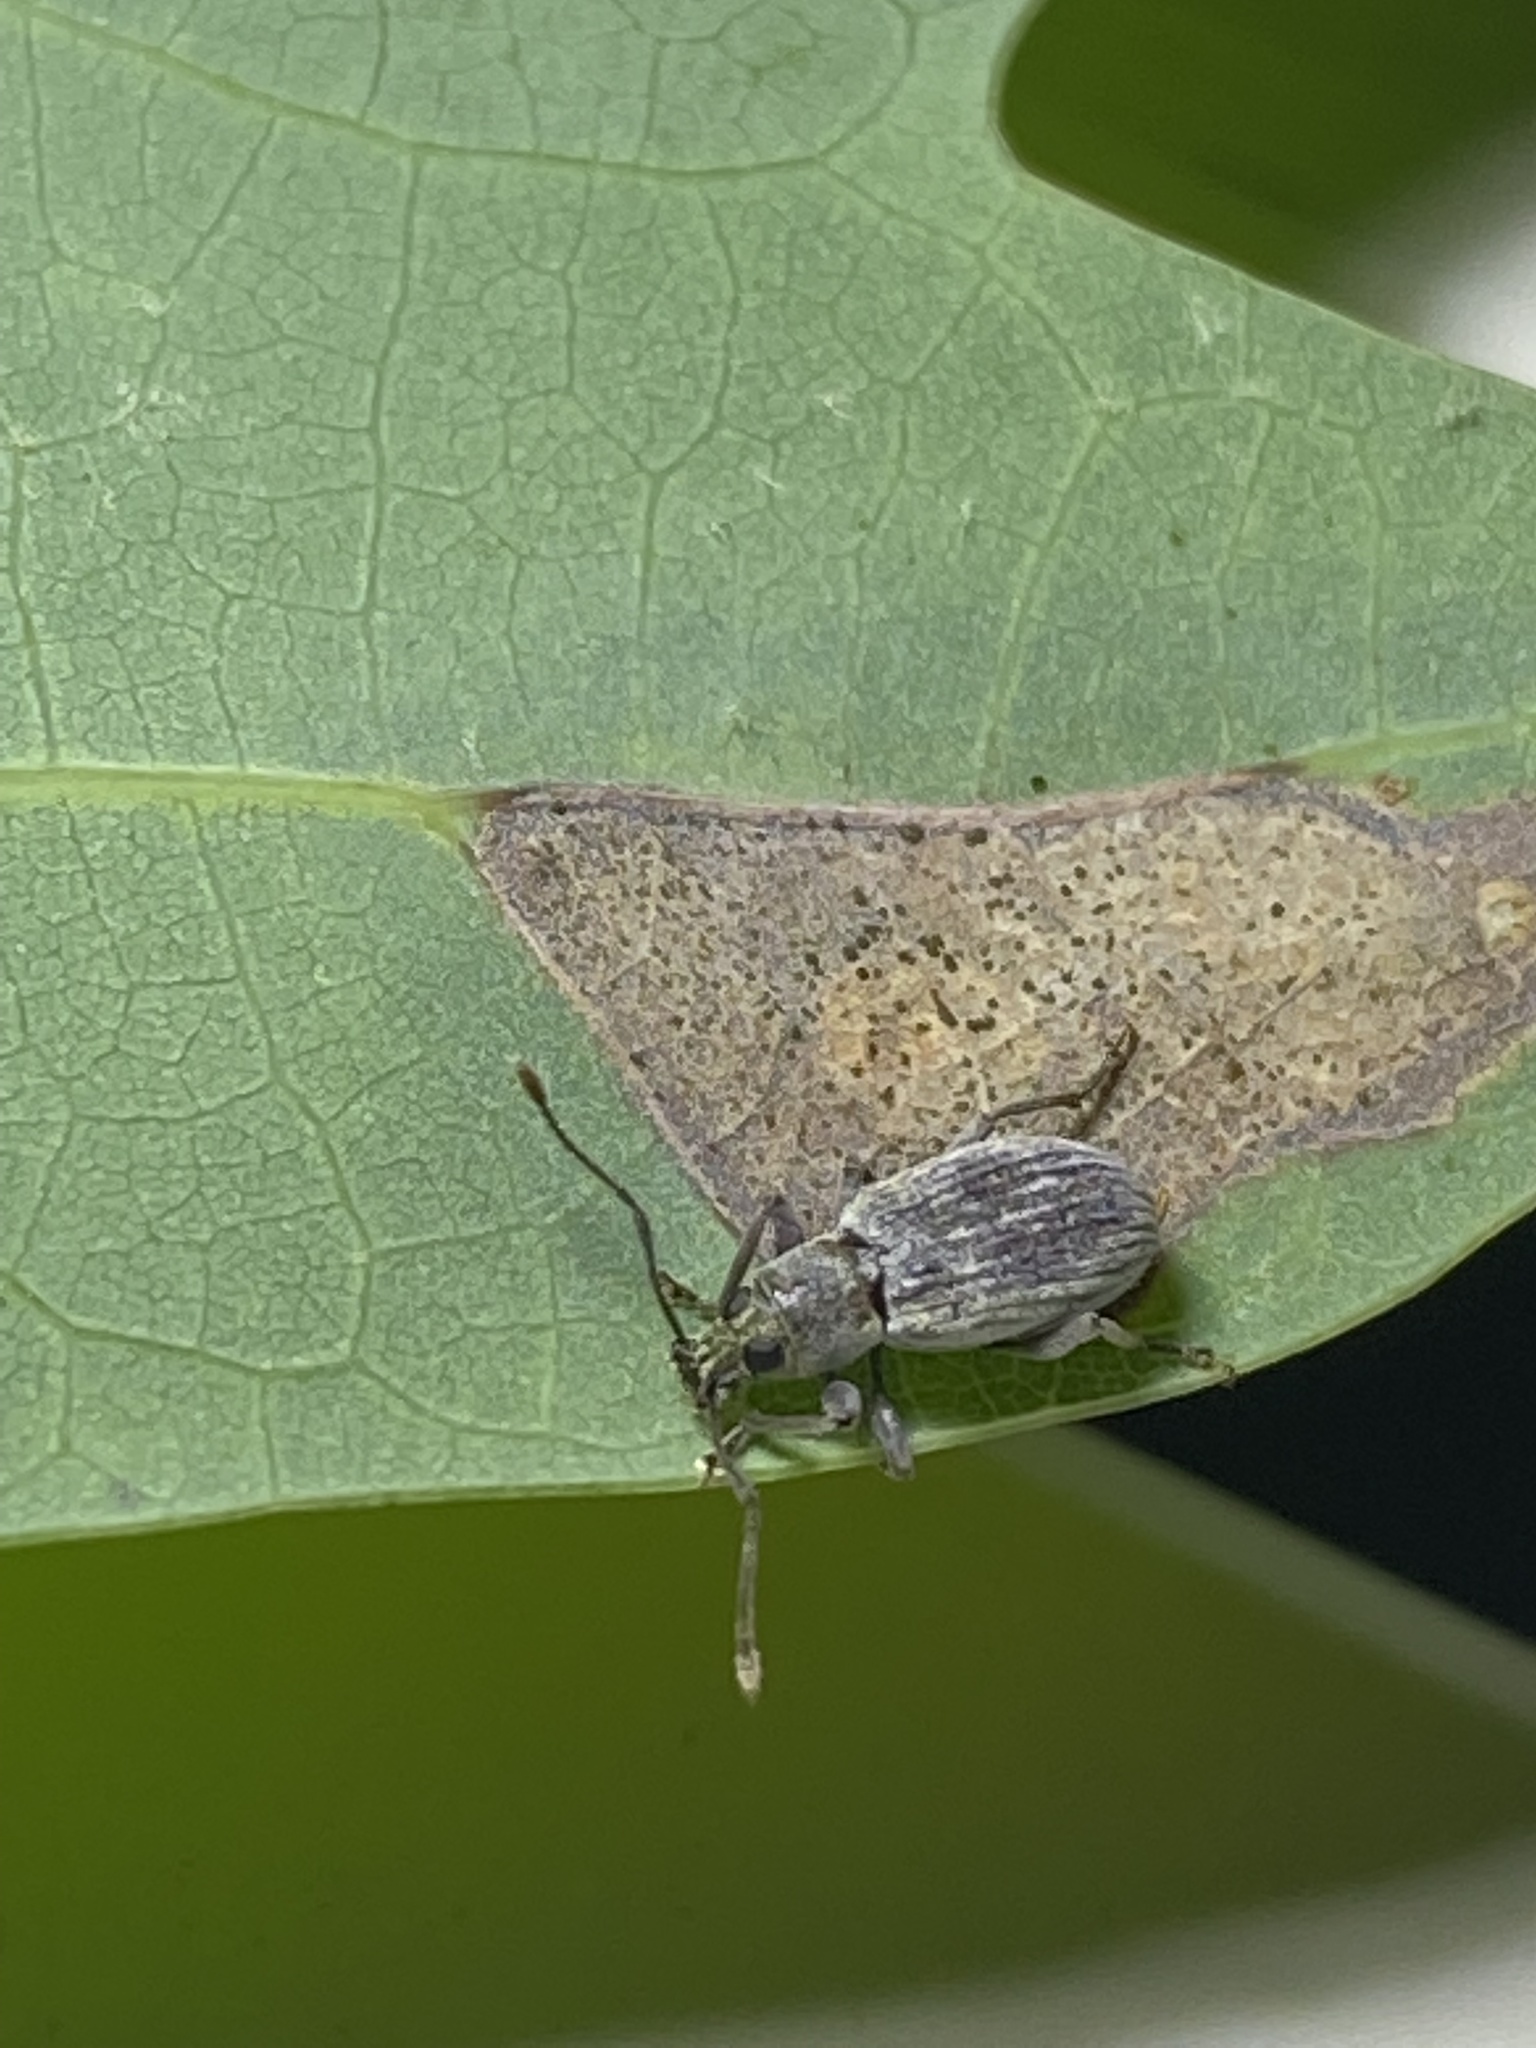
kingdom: Animalia
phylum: Arthropoda
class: Insecta
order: Coleoptera
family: Curculionidae
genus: Cyrtepistomus
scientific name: Cyrtepistomus castaneus
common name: Weevil
